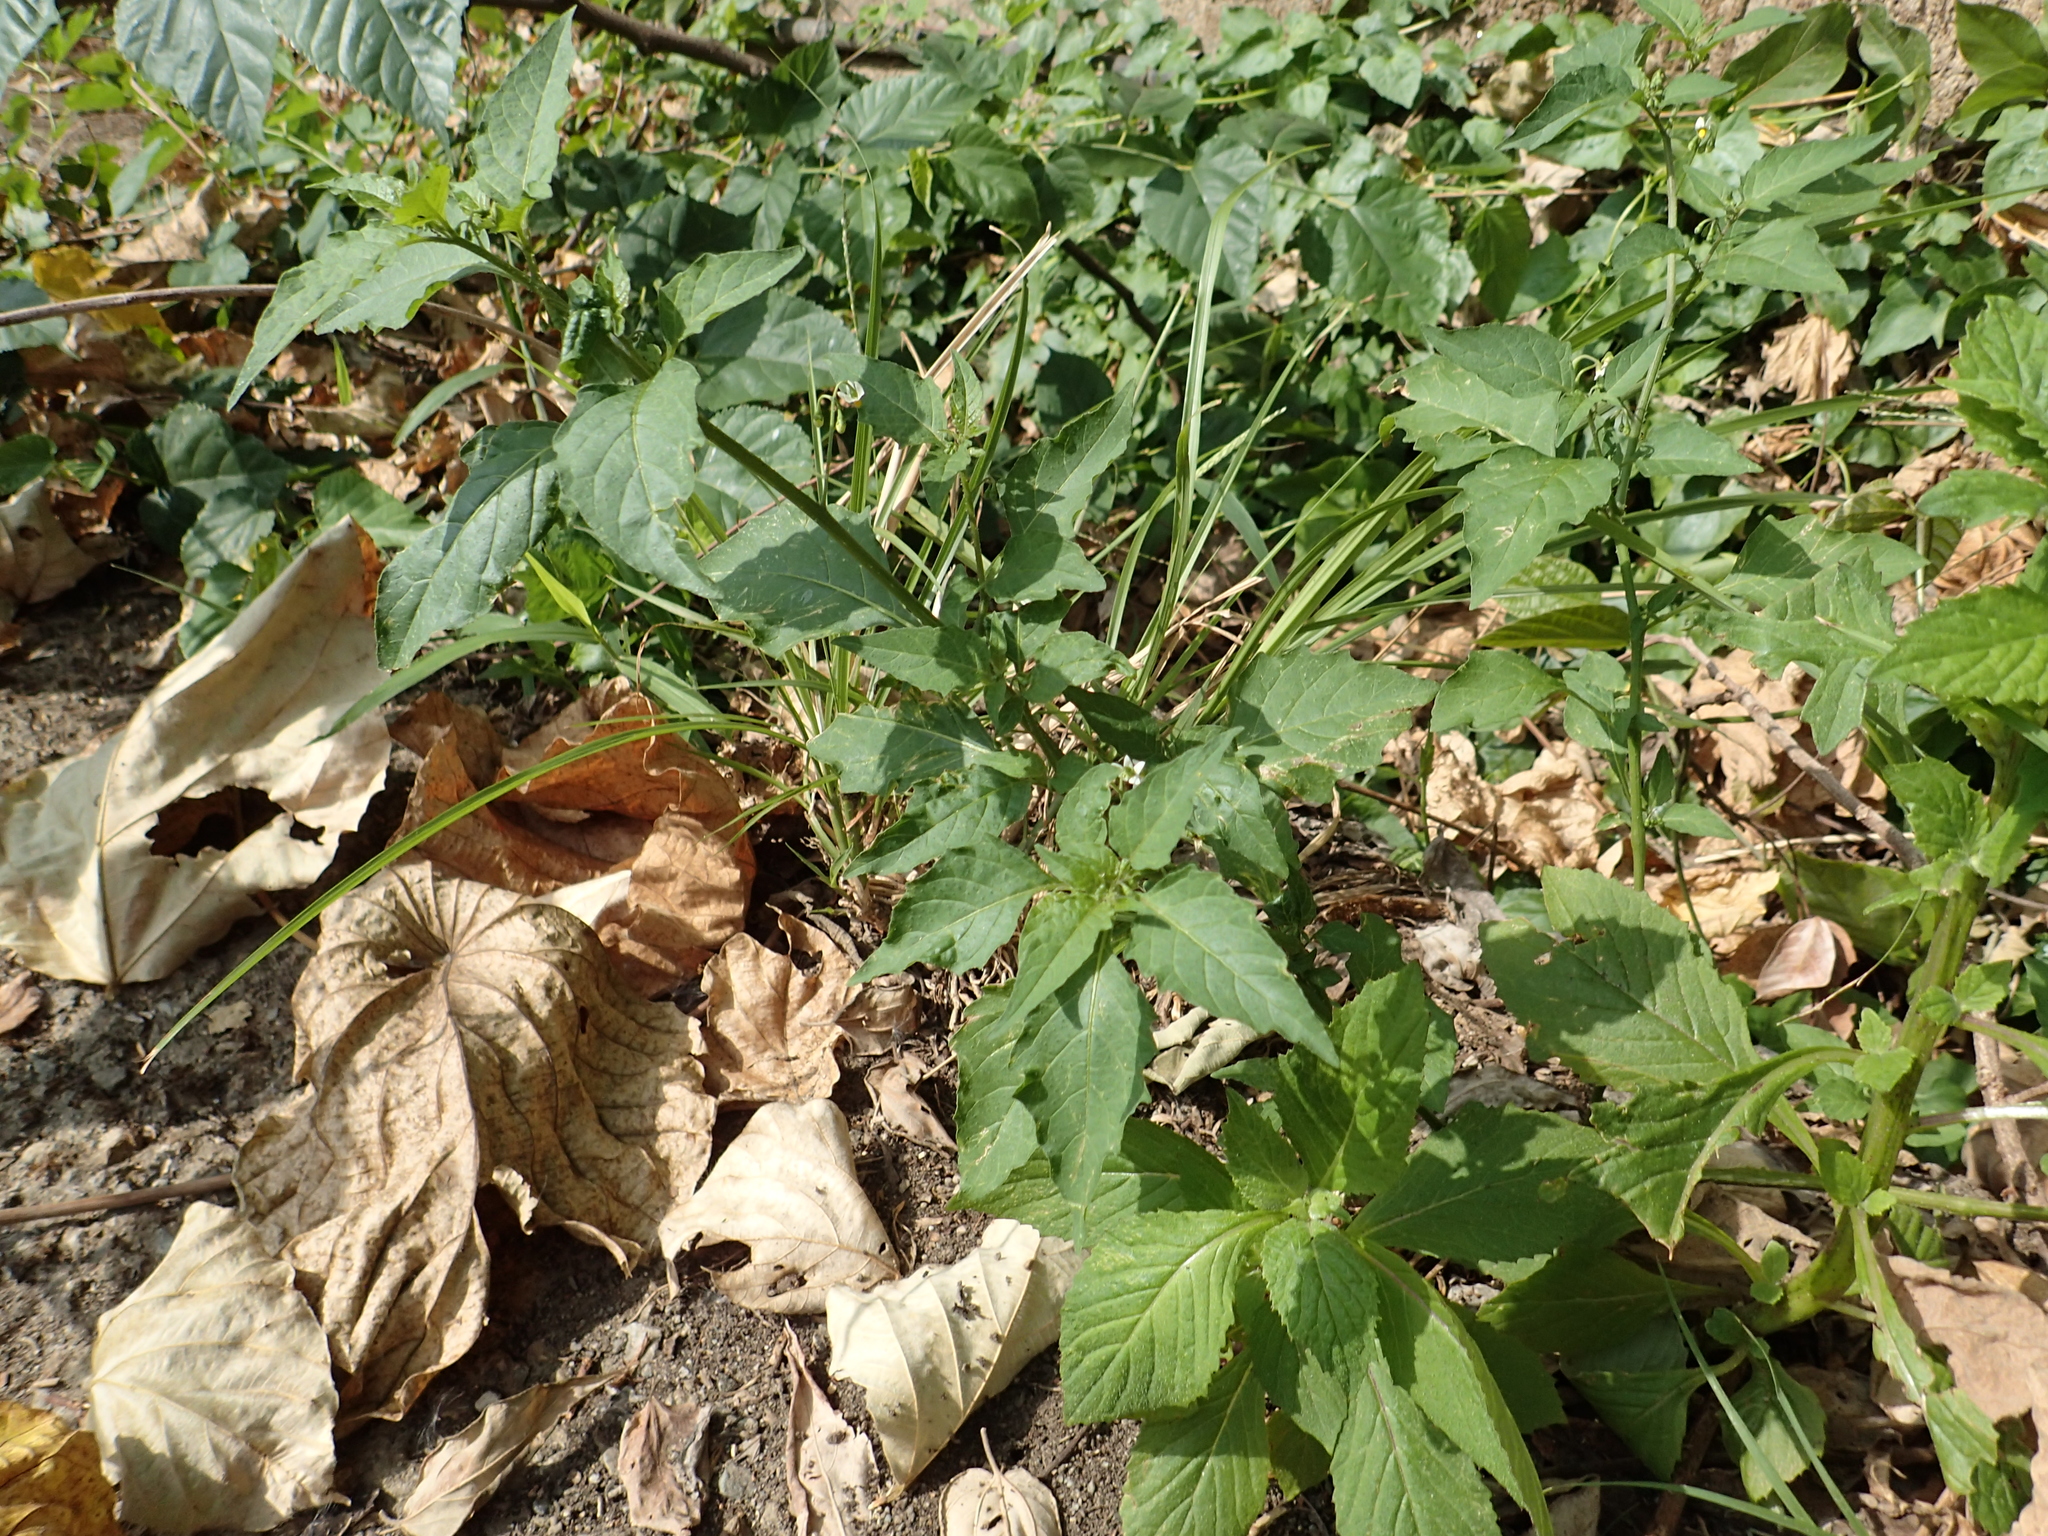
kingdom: Plantae
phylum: Tracheophyta
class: Magnoliopsida
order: Solanales
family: Solanaceae
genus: Solanum
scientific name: Solanum americanum
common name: American black nightshade
